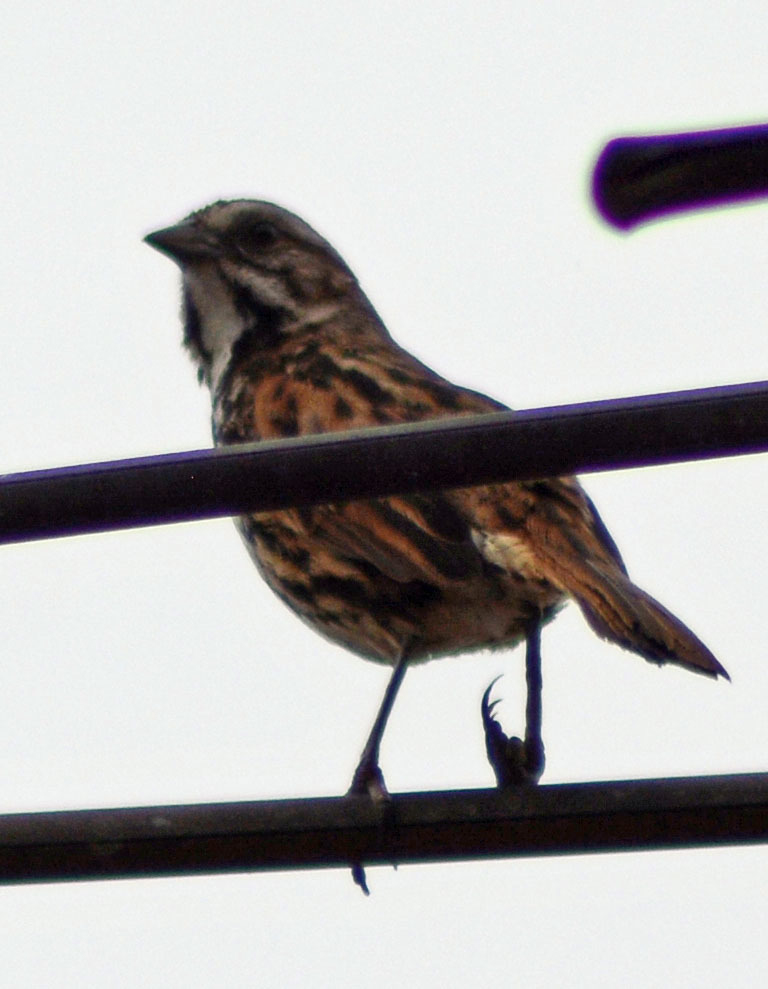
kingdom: Animalia
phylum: Chordata
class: Aves
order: Passeriformes
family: Passerellidae
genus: Melospiza
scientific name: Melospiza melodia
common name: Song sparrow
